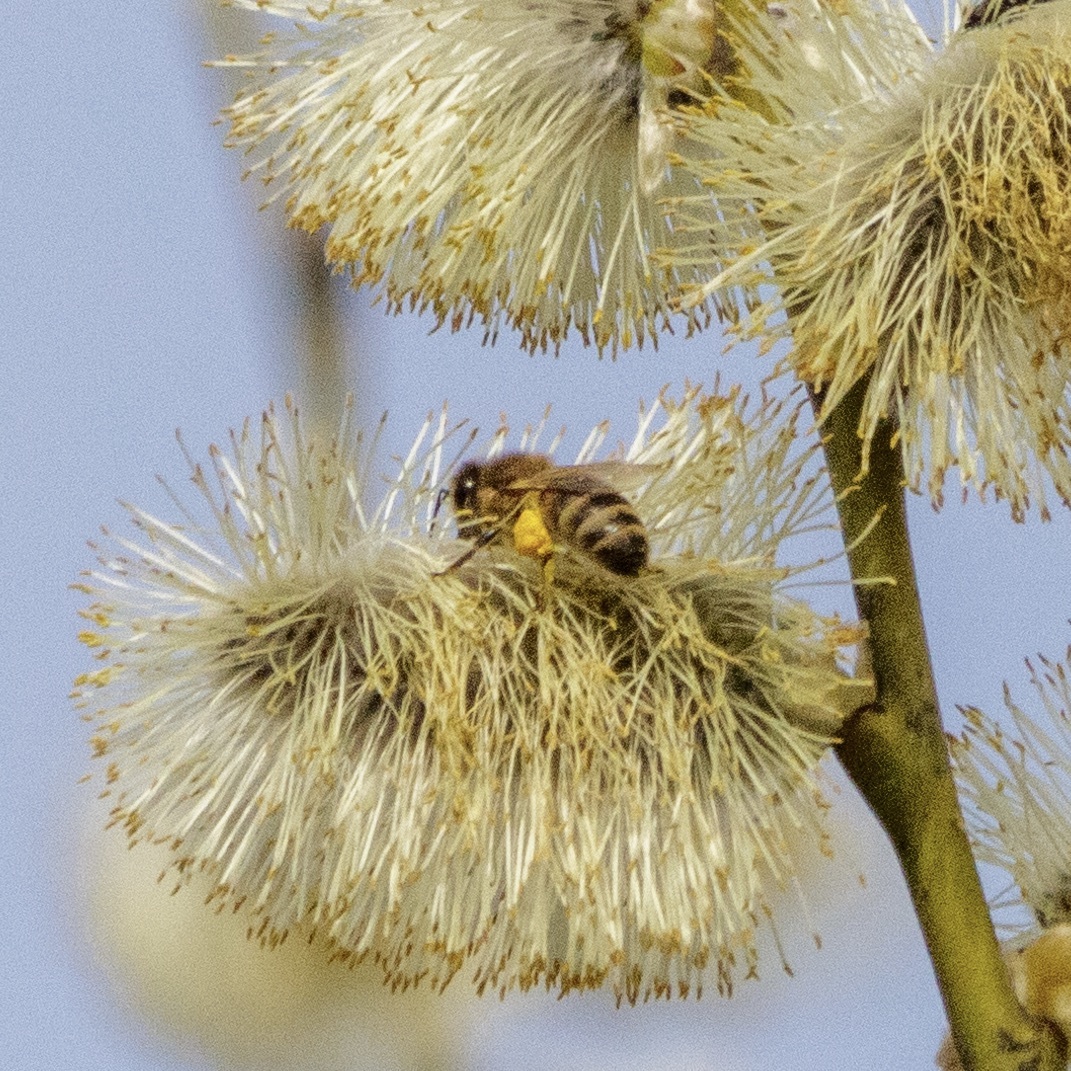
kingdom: Animalia
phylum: Arthropoda
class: Insecta
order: Hymenoptera
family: Apidae
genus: Apis
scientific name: Apis mellifera
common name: Honey bee
